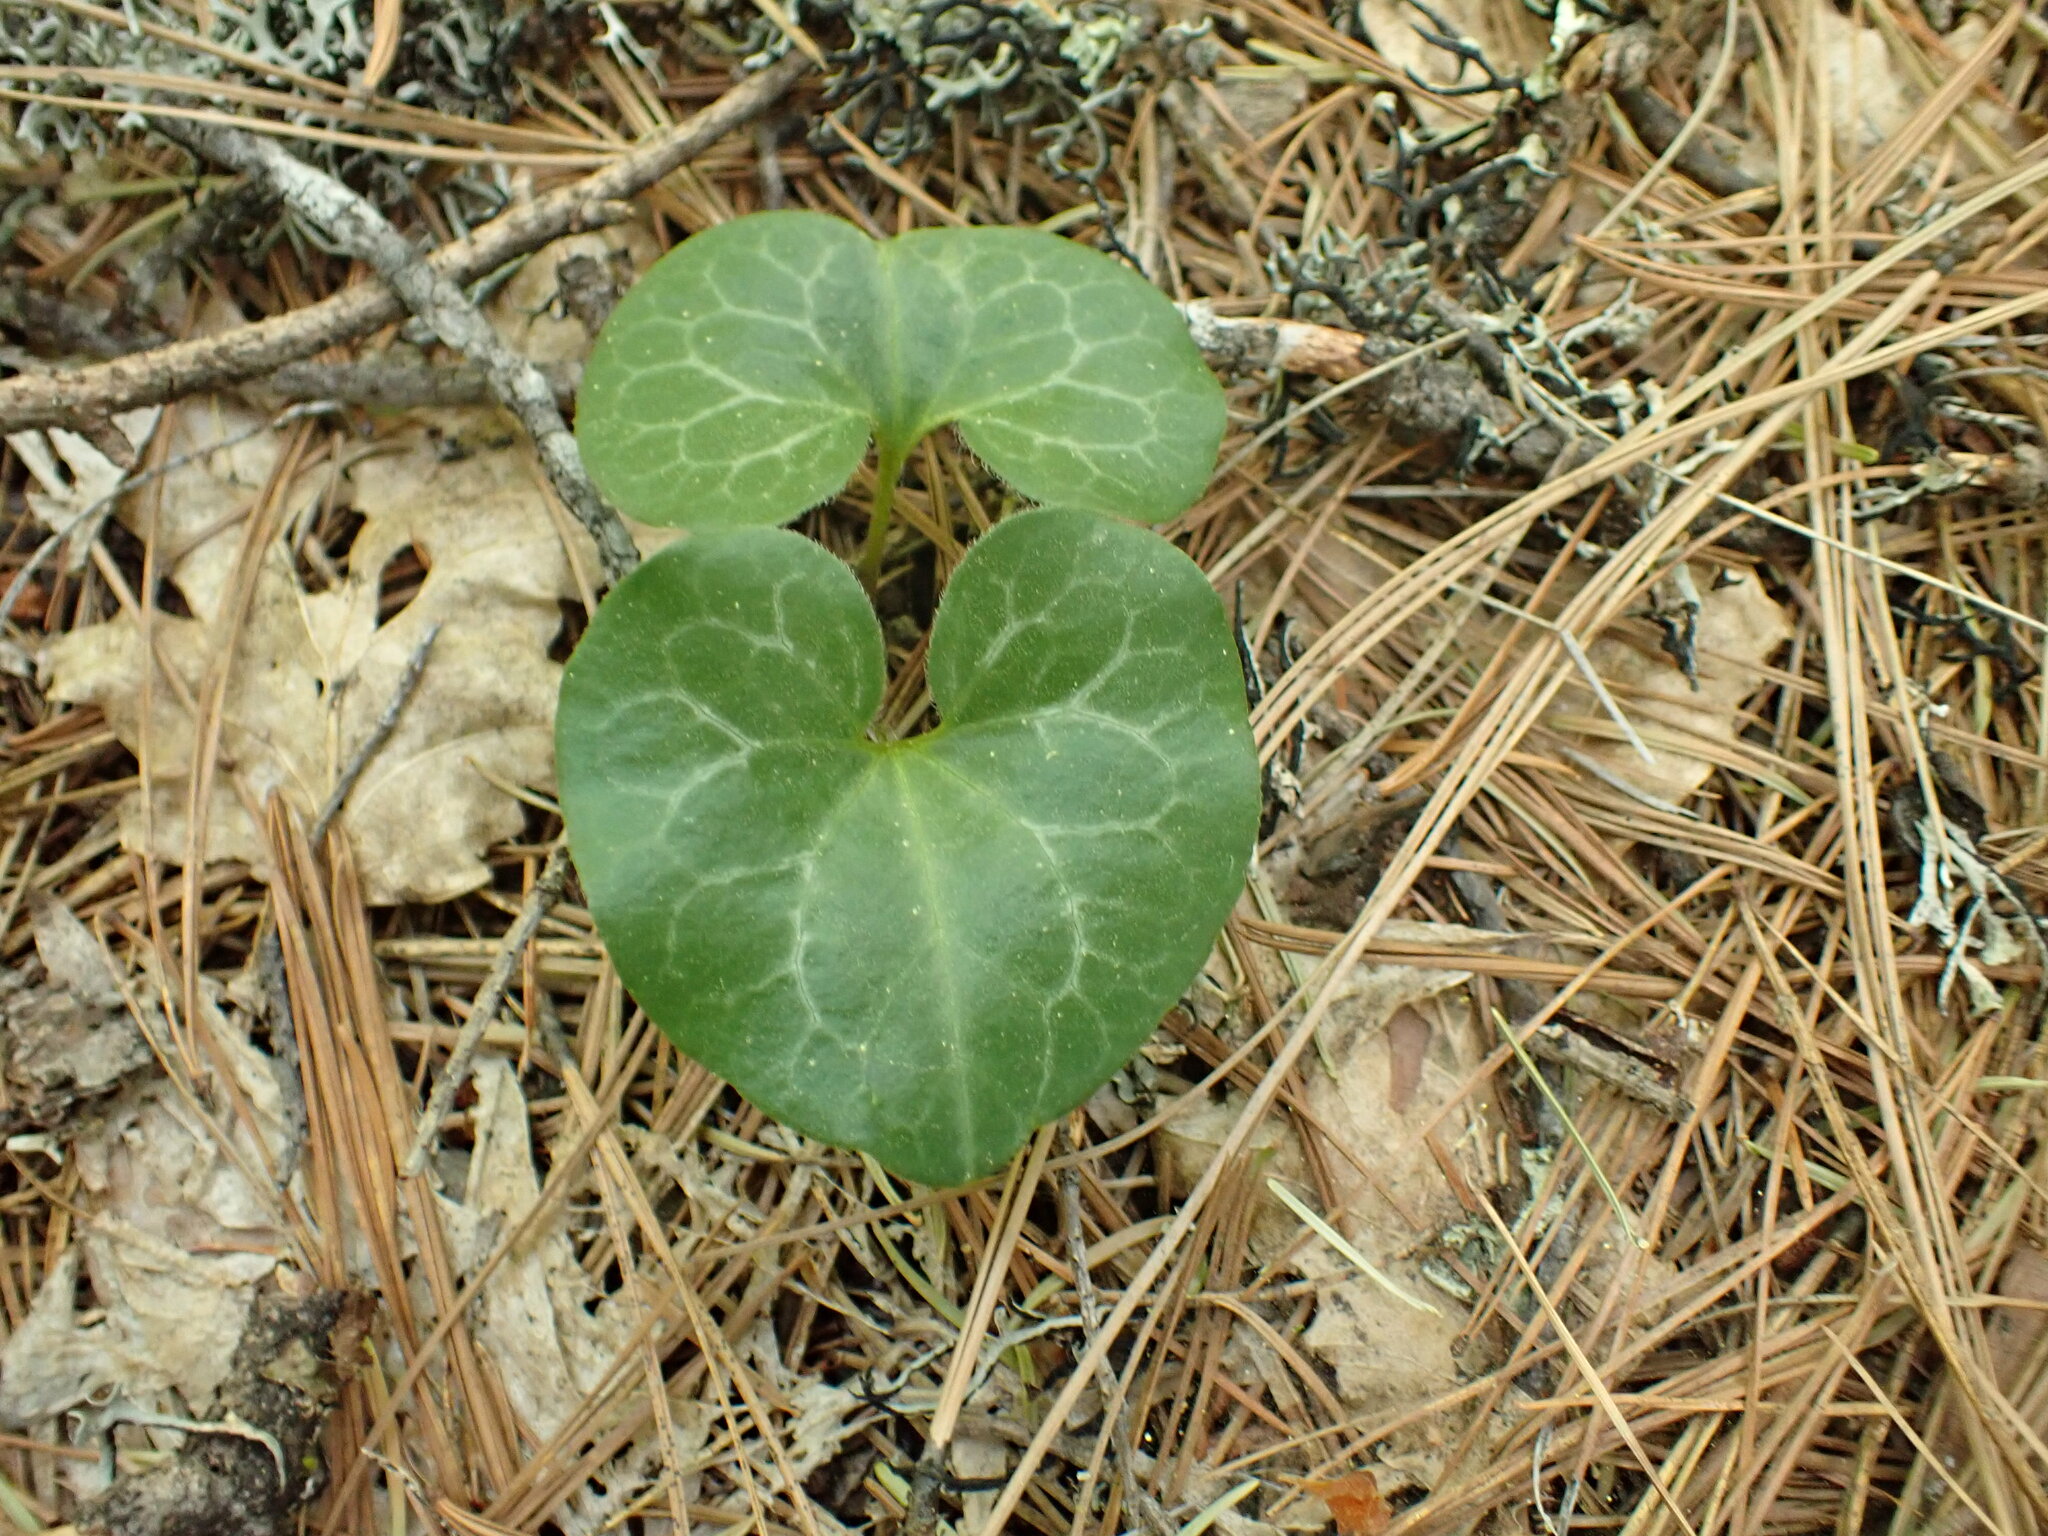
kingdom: Plantae
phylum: Tracheophyta
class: Magnoliopsida
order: Piperales
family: Aristolochiaceae
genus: Asarum
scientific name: Asarum hartwegii
